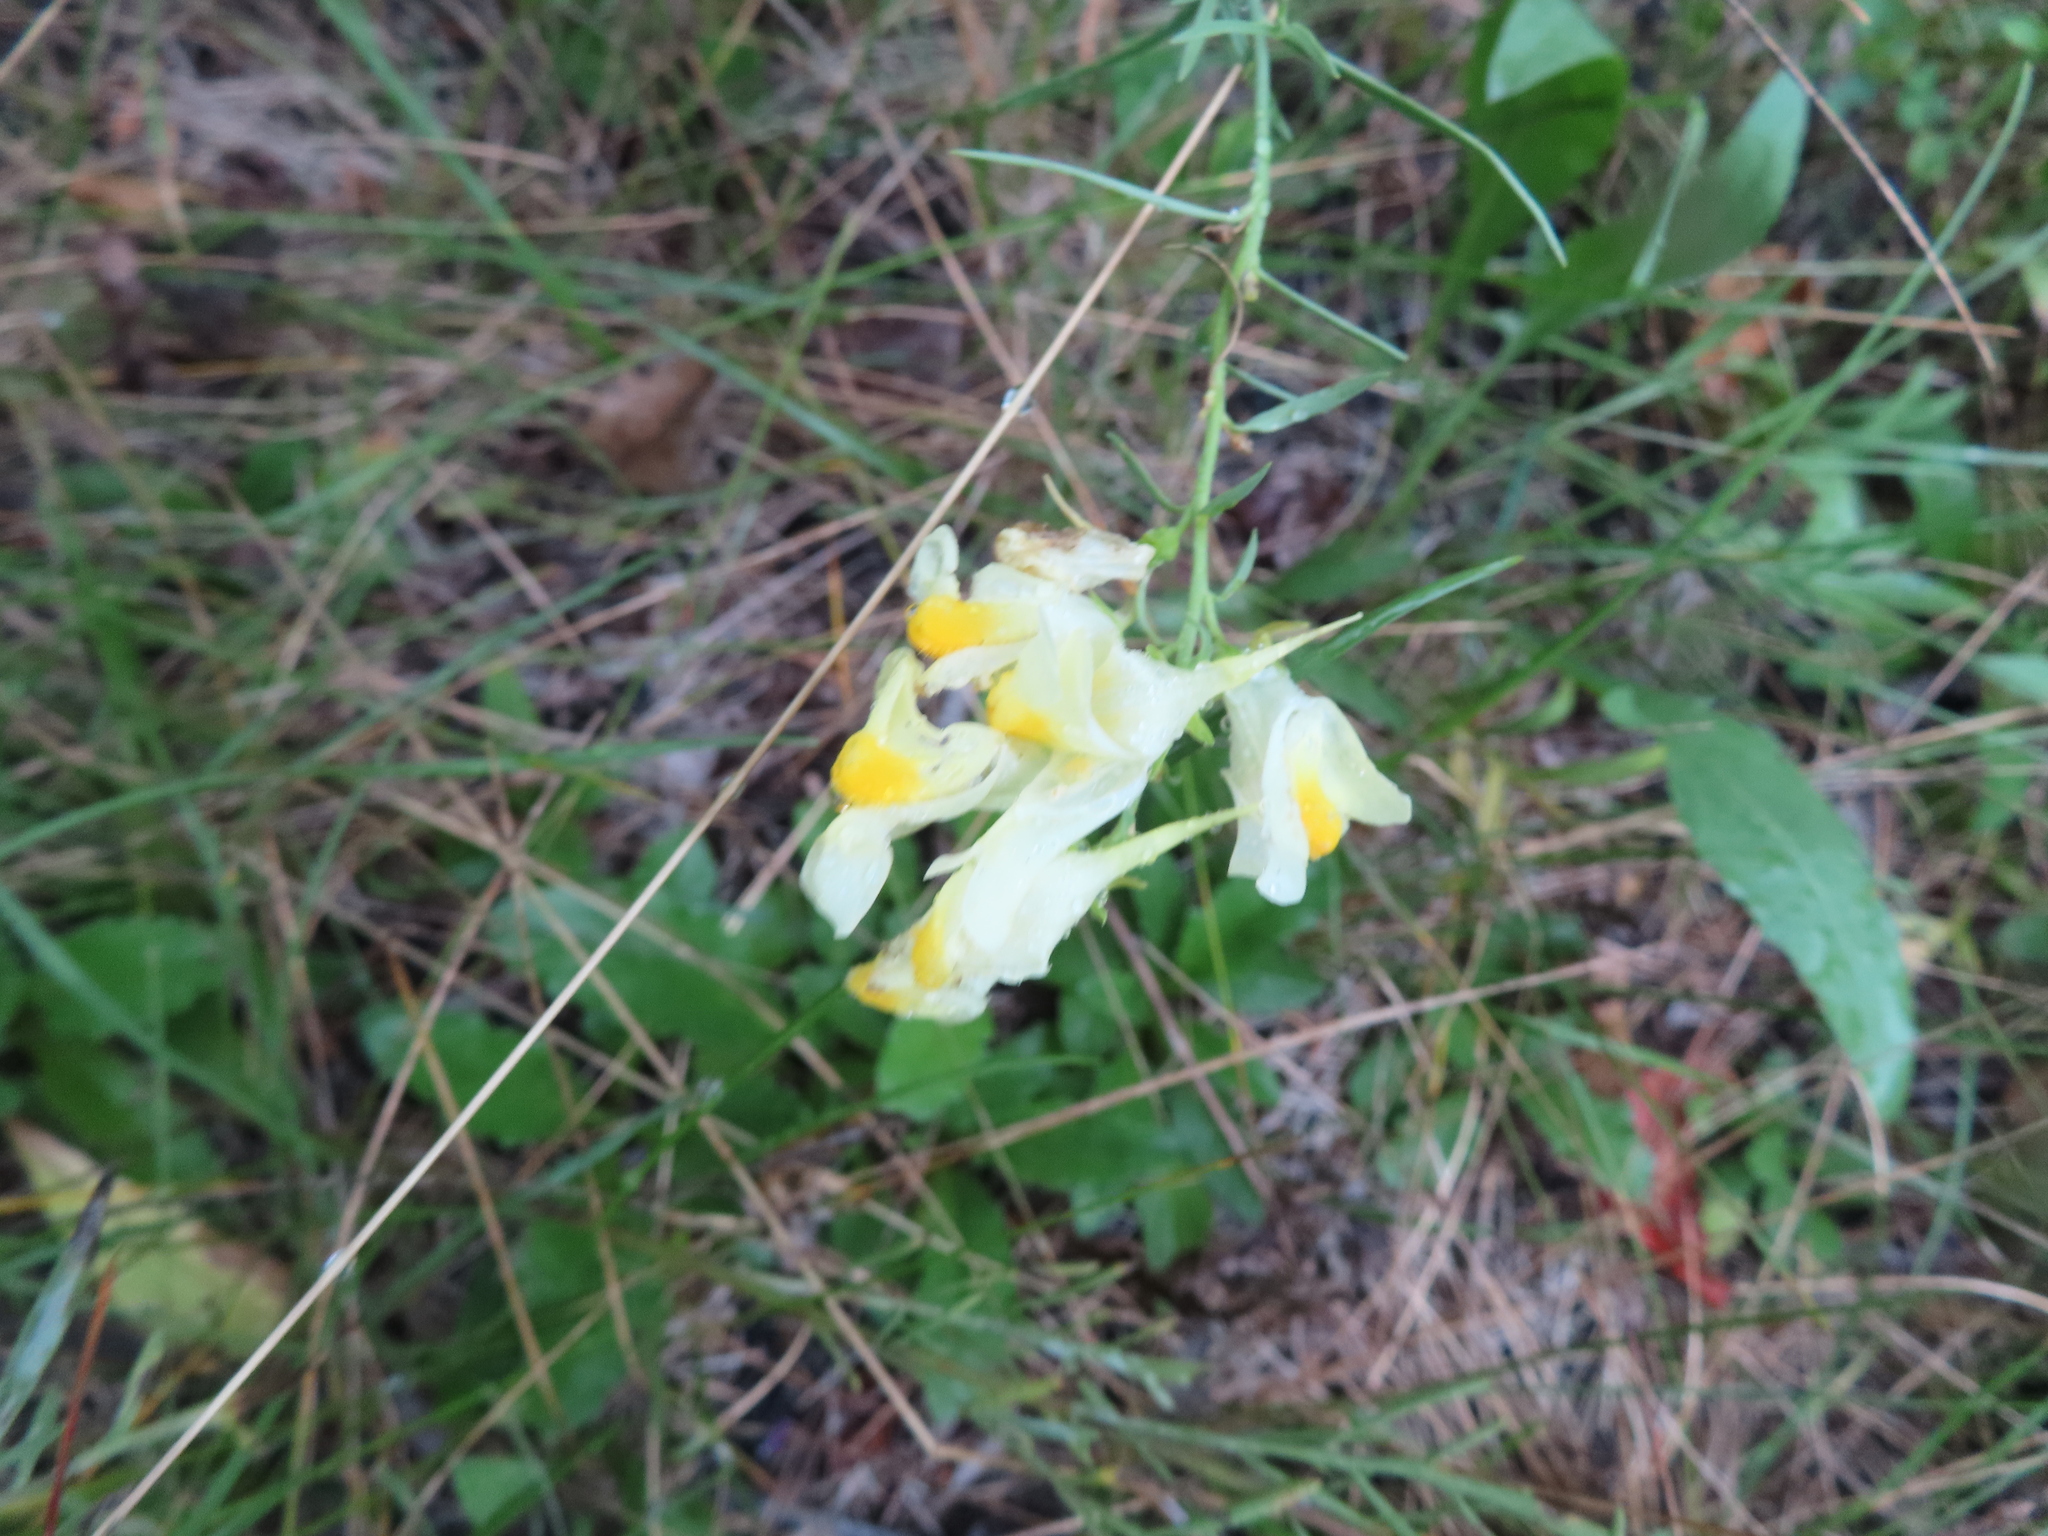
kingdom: Plantae
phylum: Tracheophyta
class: Magnoliopsida
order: Lamiales
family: Plantaginaceae
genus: Linaria
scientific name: Linaria vulgaris
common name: Butter and eggs
